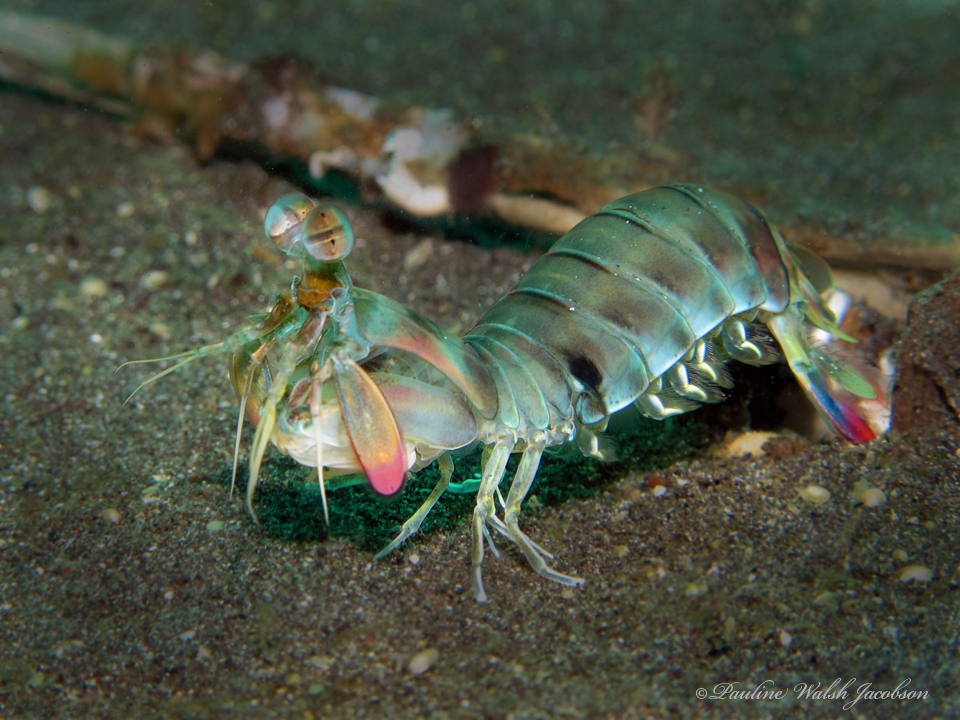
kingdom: Animalia
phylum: Arthropoda
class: Malacostraca
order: Stomatopoda
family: Odontodactylidae
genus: Odontodactylus
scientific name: Odontodactylus cultrifer
